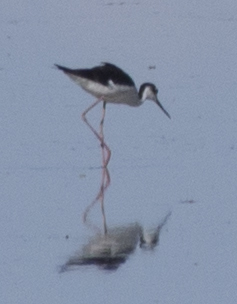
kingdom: Animalia
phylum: Chordata
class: Aves
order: Charadriiformes
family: Recurvirostridae
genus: Himantopus
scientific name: Himantopus mexicanus
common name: Black-necked stilt
